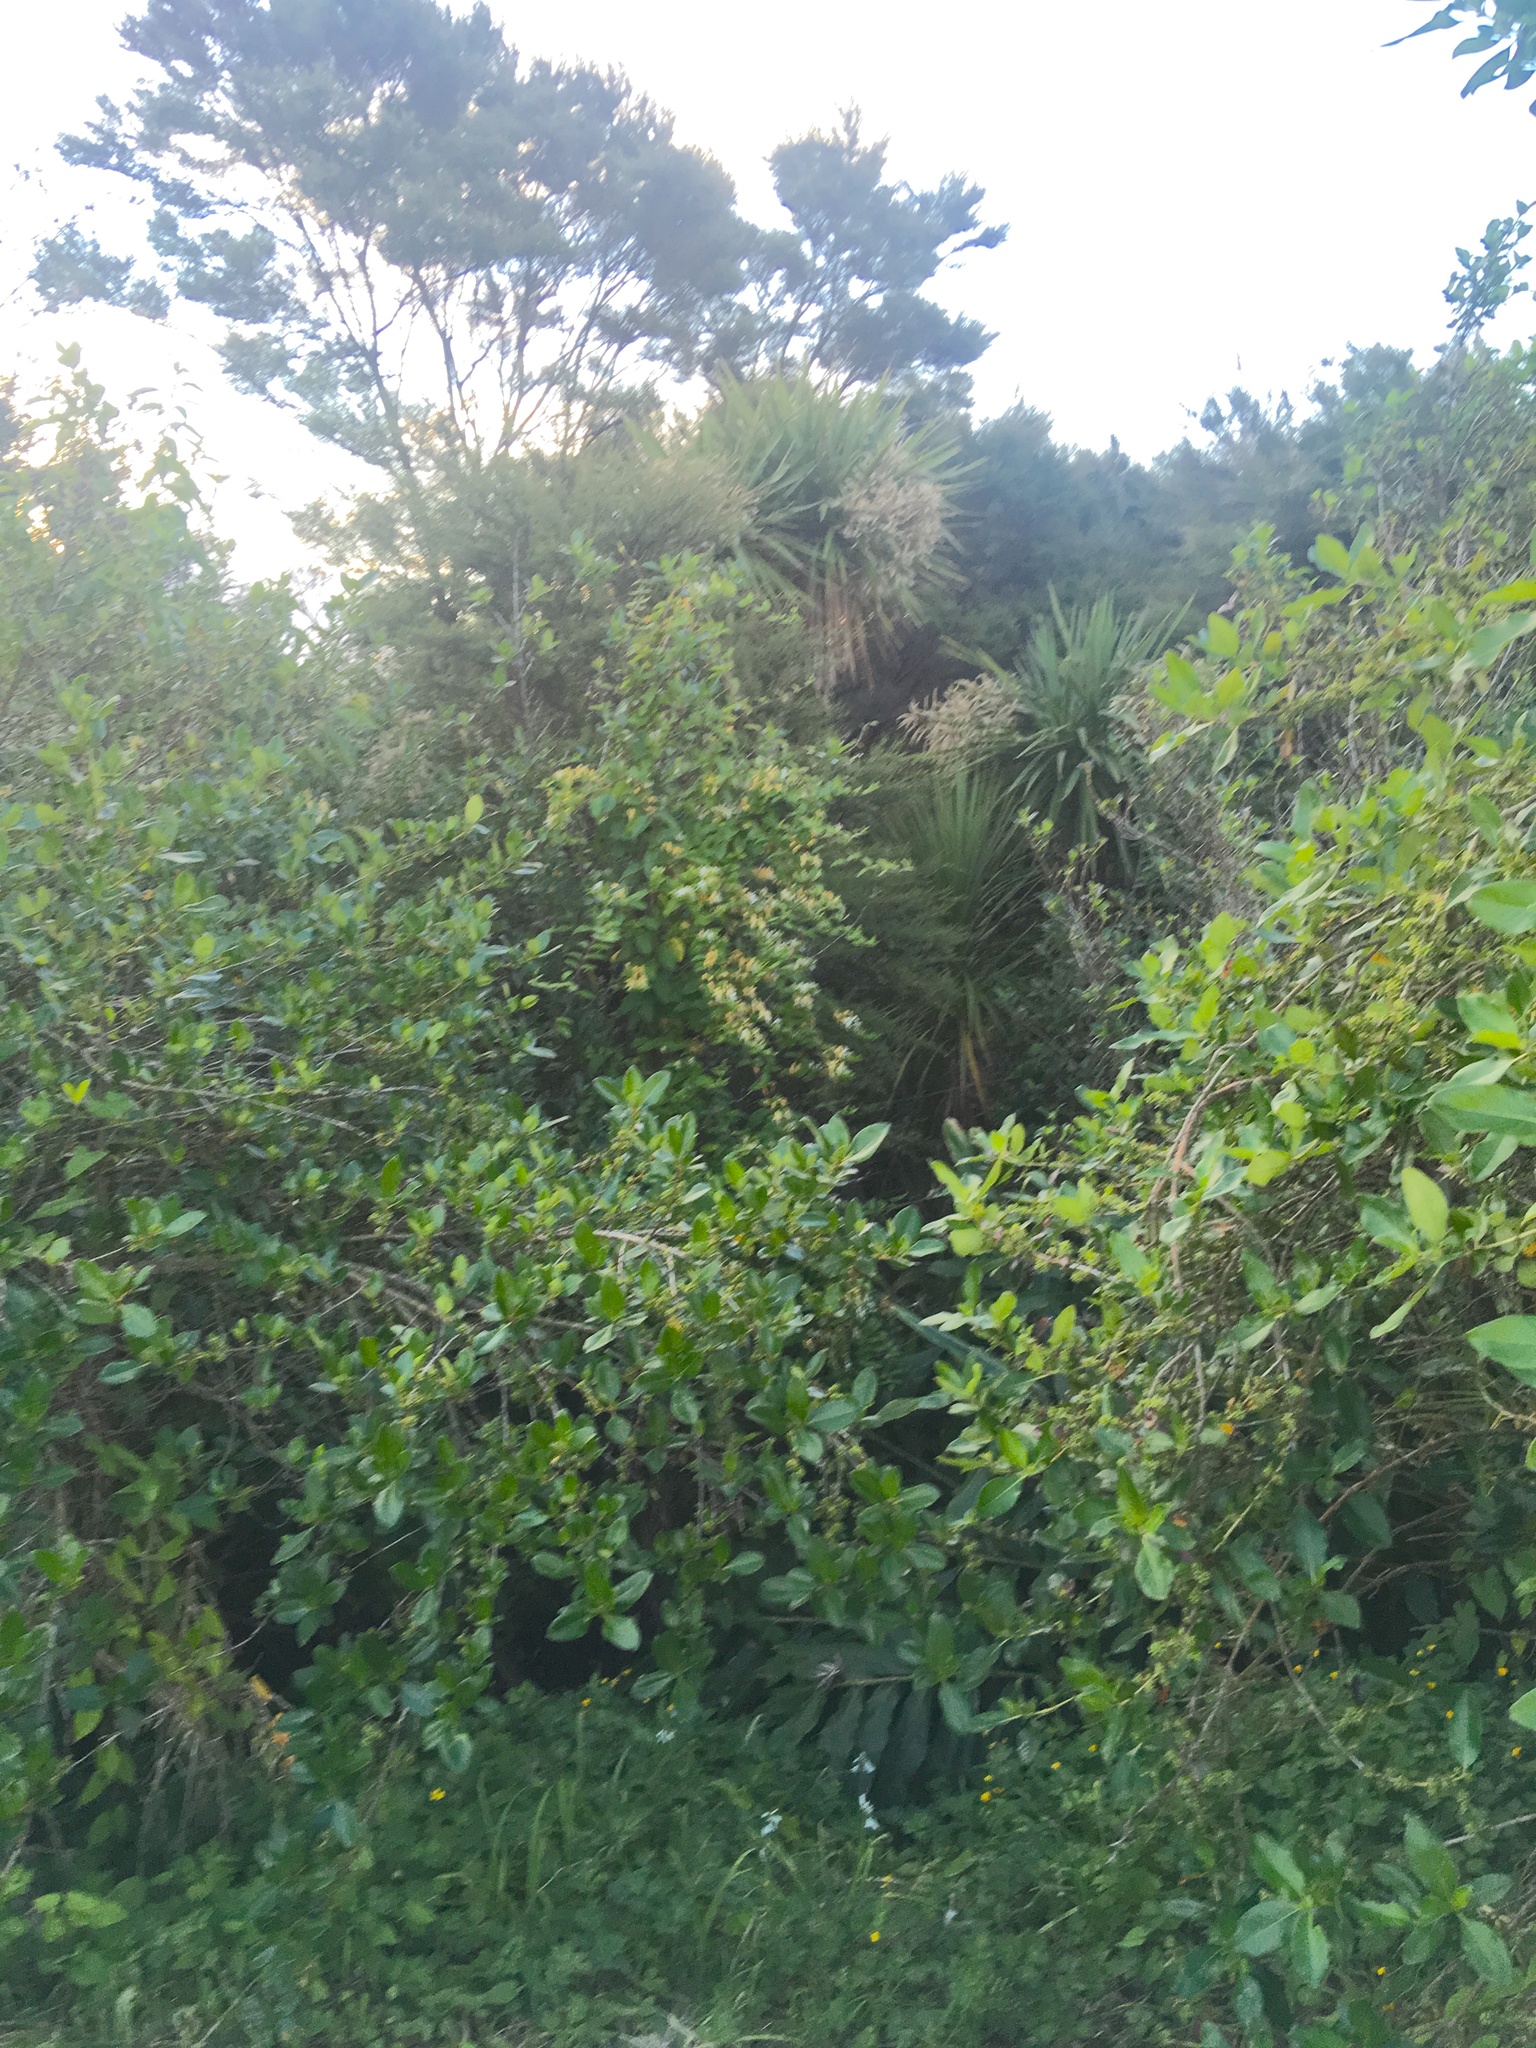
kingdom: Plantae
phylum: Tracheophyta
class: Liliopsida
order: Asparagales
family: Asparagaceae
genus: Cordyline
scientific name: Cordyline australis
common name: Cabbage-palm
